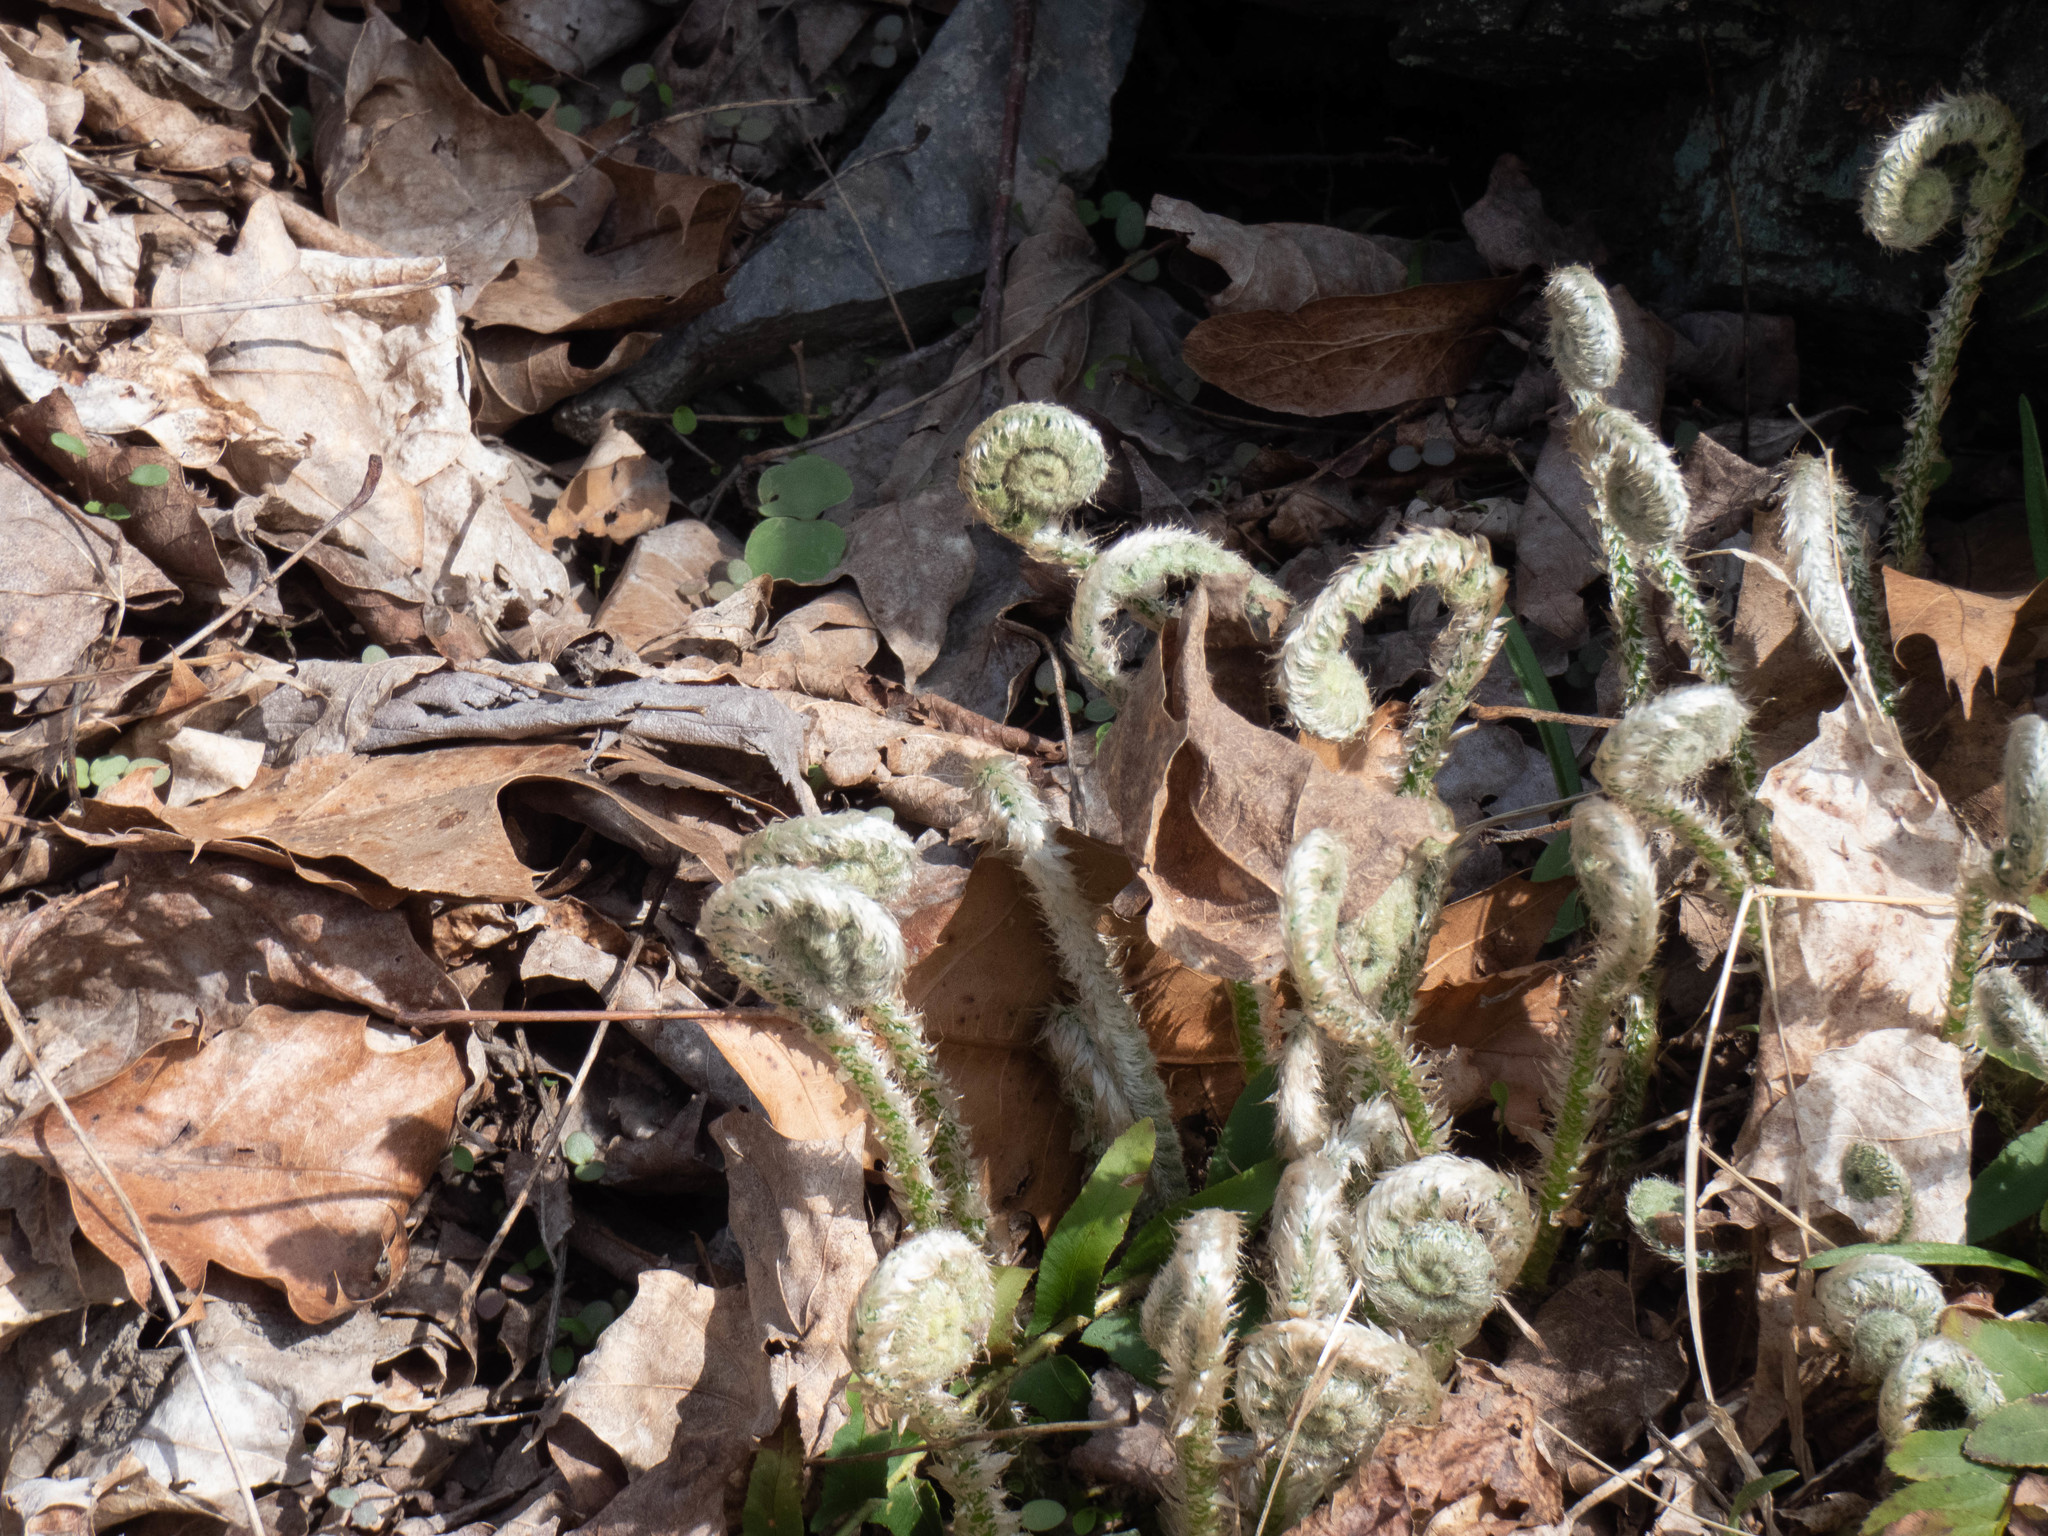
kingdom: Plantae
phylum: Tracheophyta
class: Polypodiopsida
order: Polypodiales
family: Dryopteridaceae
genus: Polystichum
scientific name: Polystichum acrostichoides
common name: Christmas fern
